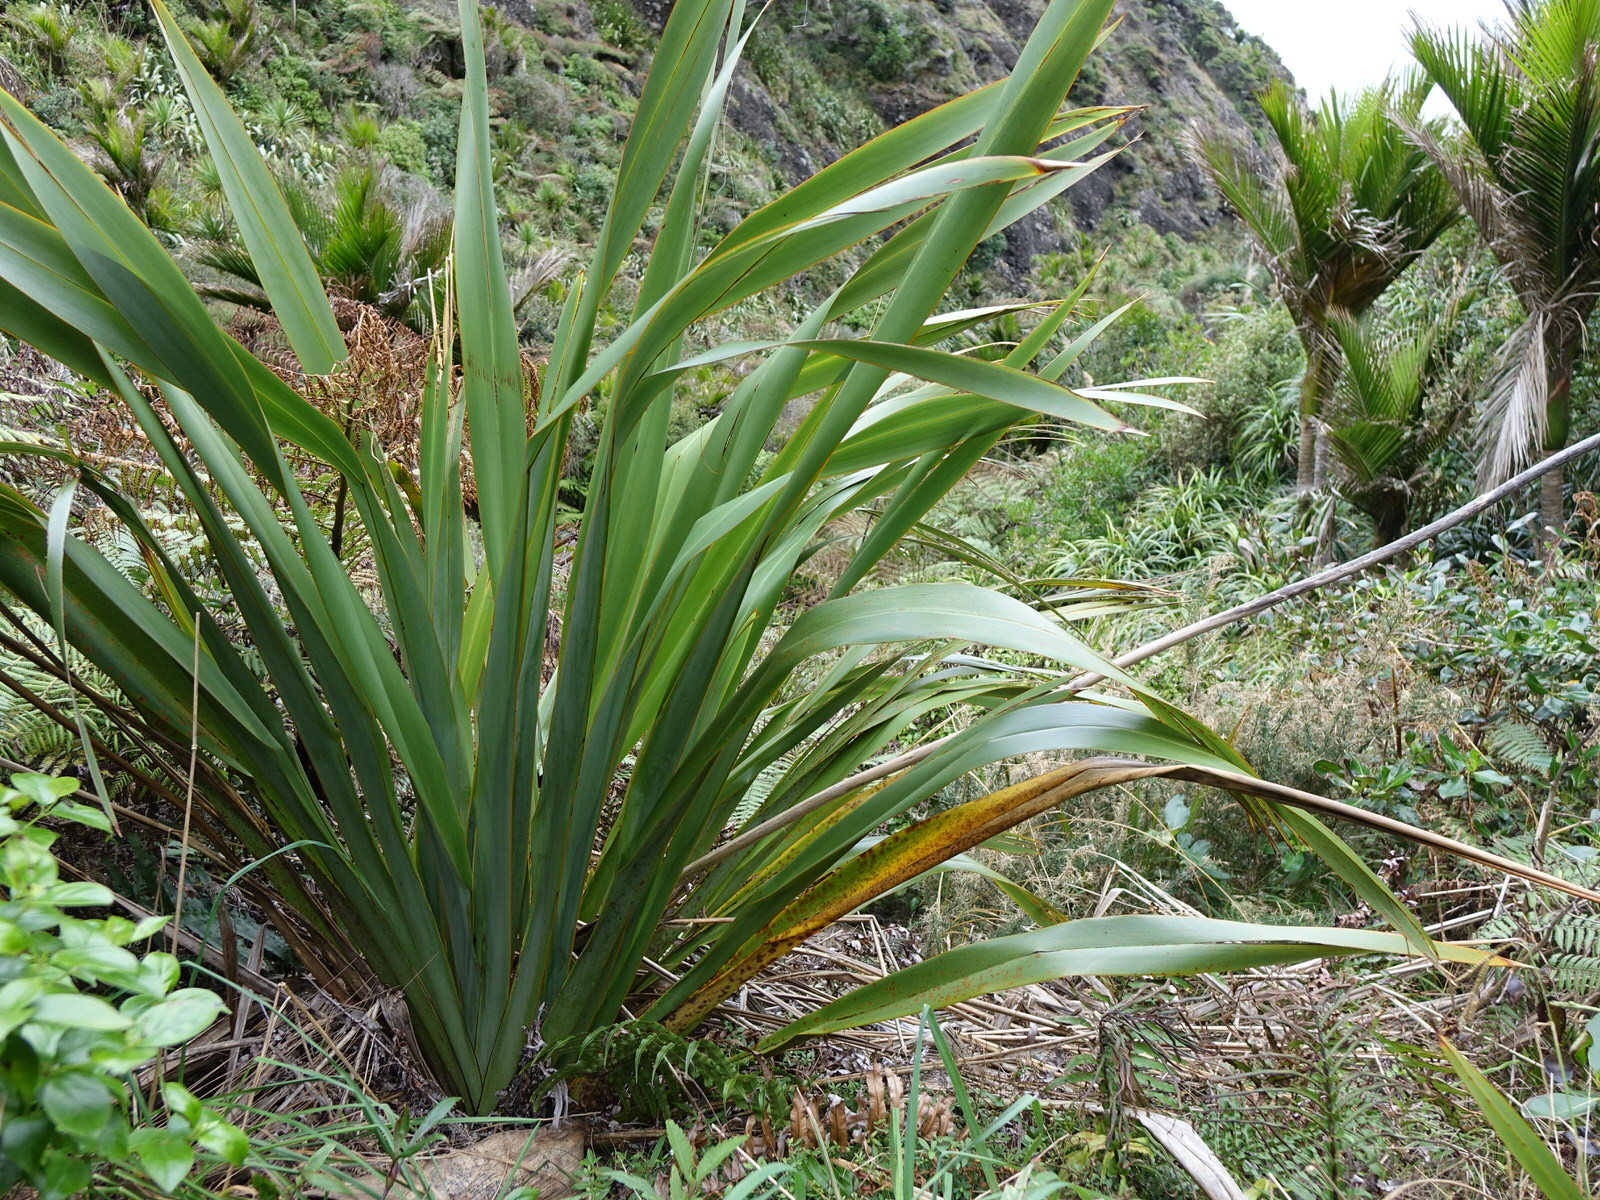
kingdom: Plantae
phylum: Tracheophyta
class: Liliopsida
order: Asparagales
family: Asphodelaceae
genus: Phormium
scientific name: Phormium tenax
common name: New zealand flax
